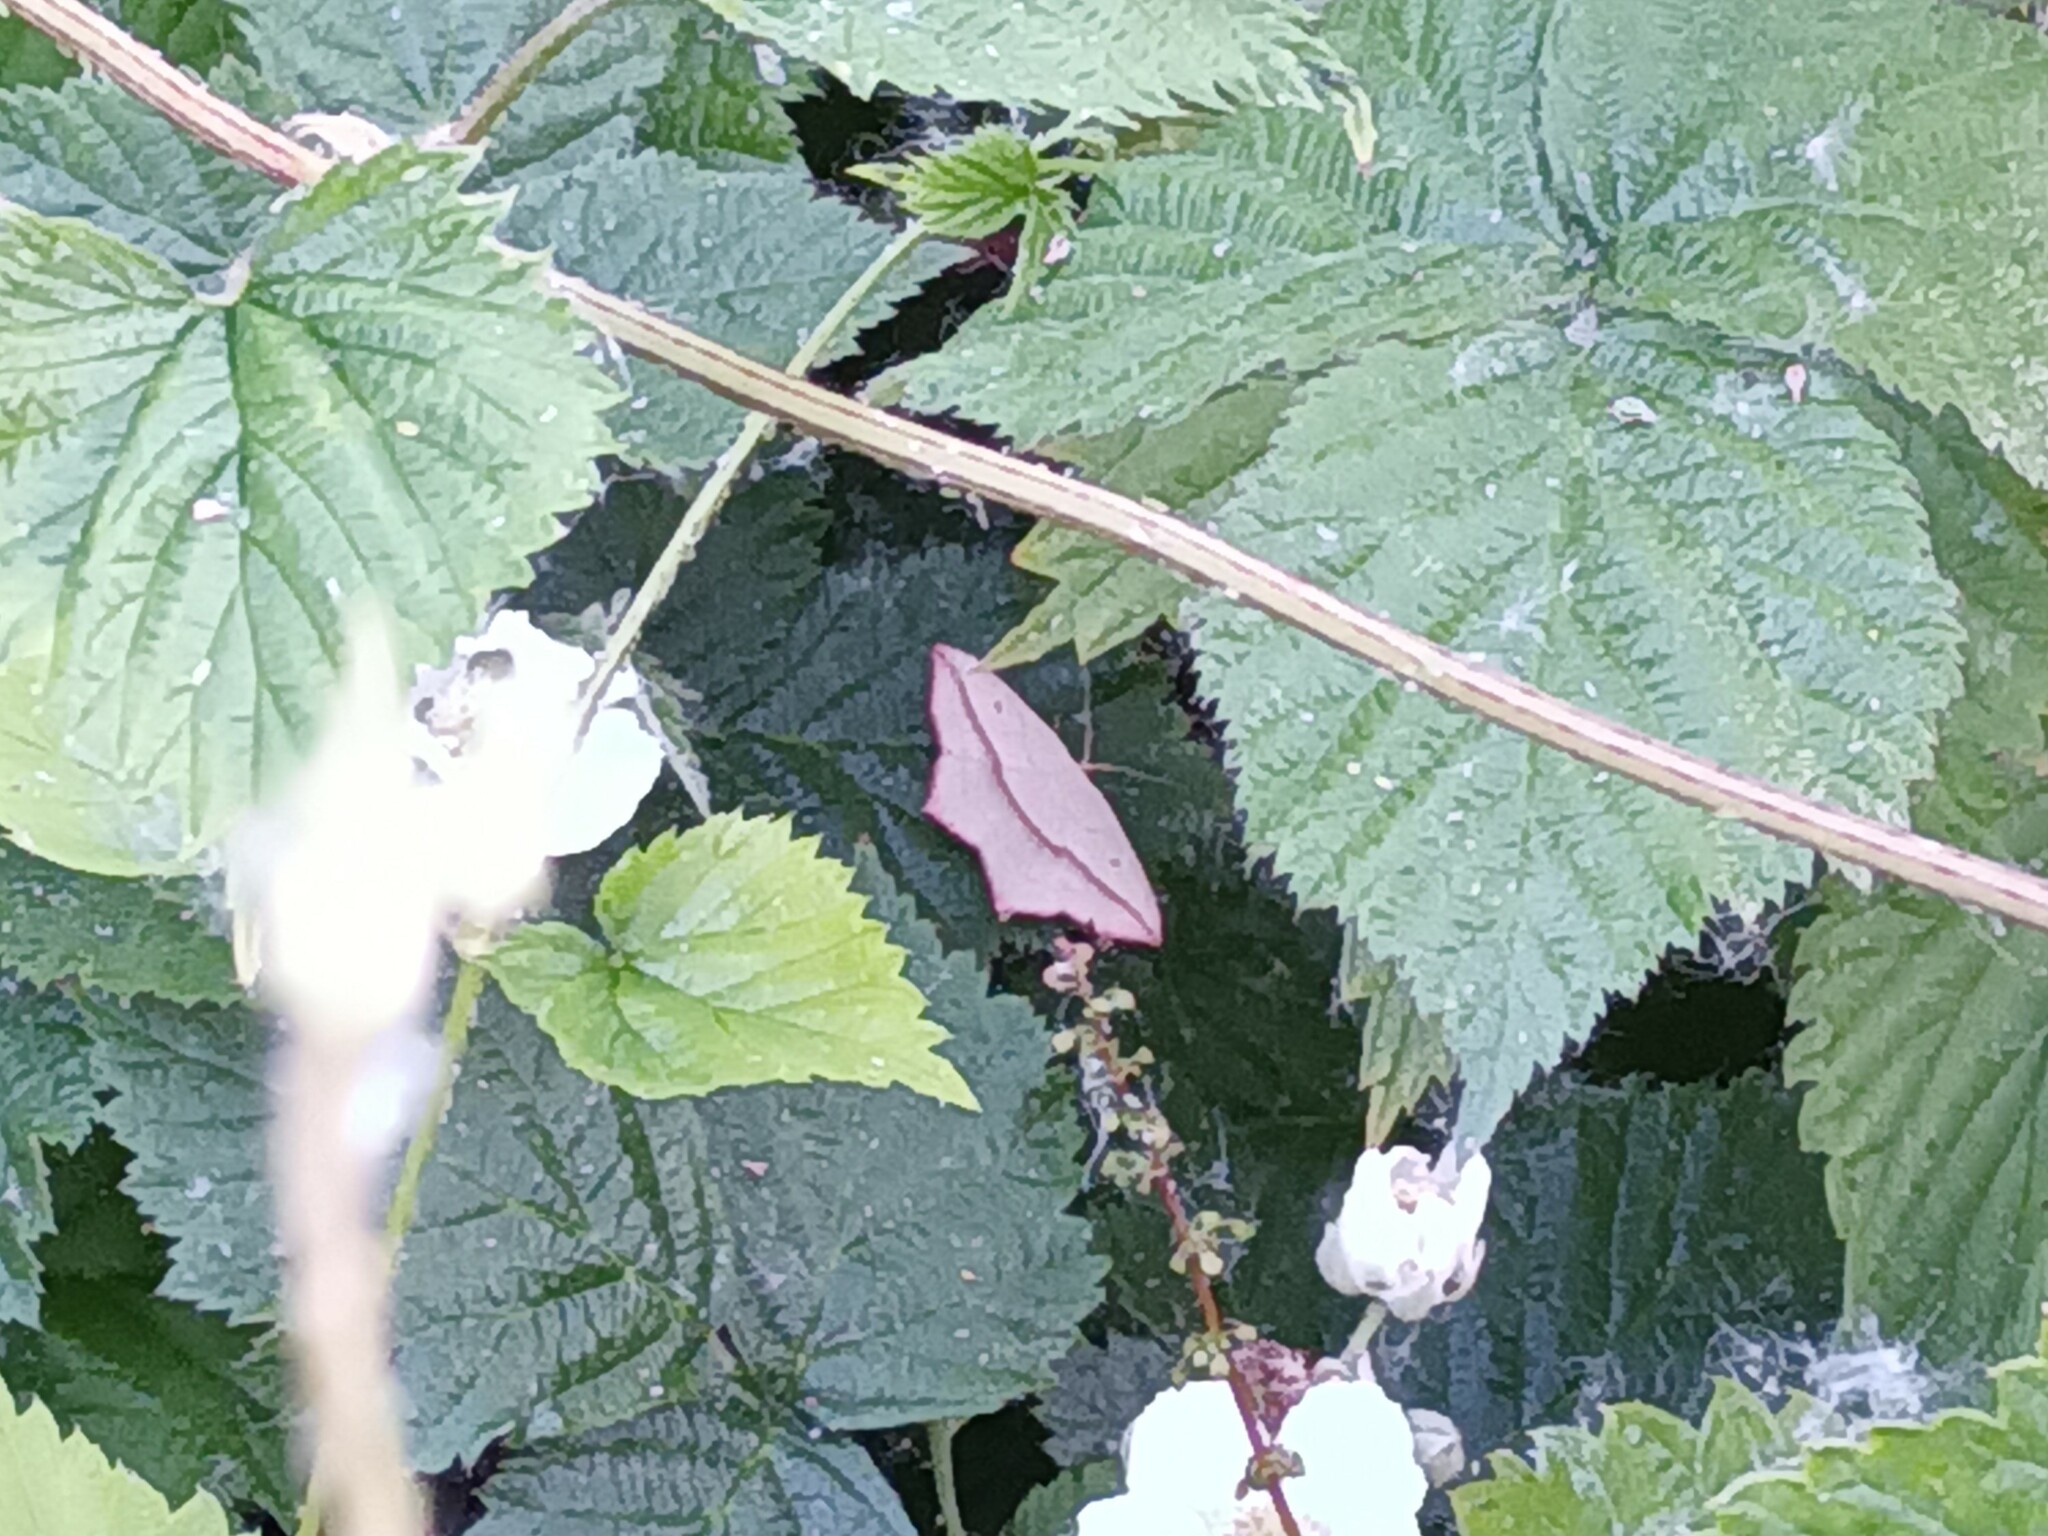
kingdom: Animalia
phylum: Arthropoda
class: Insecta
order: Lepidoptera
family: Geometridae
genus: Timandra
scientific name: Timandra comae
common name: Blood-vein
